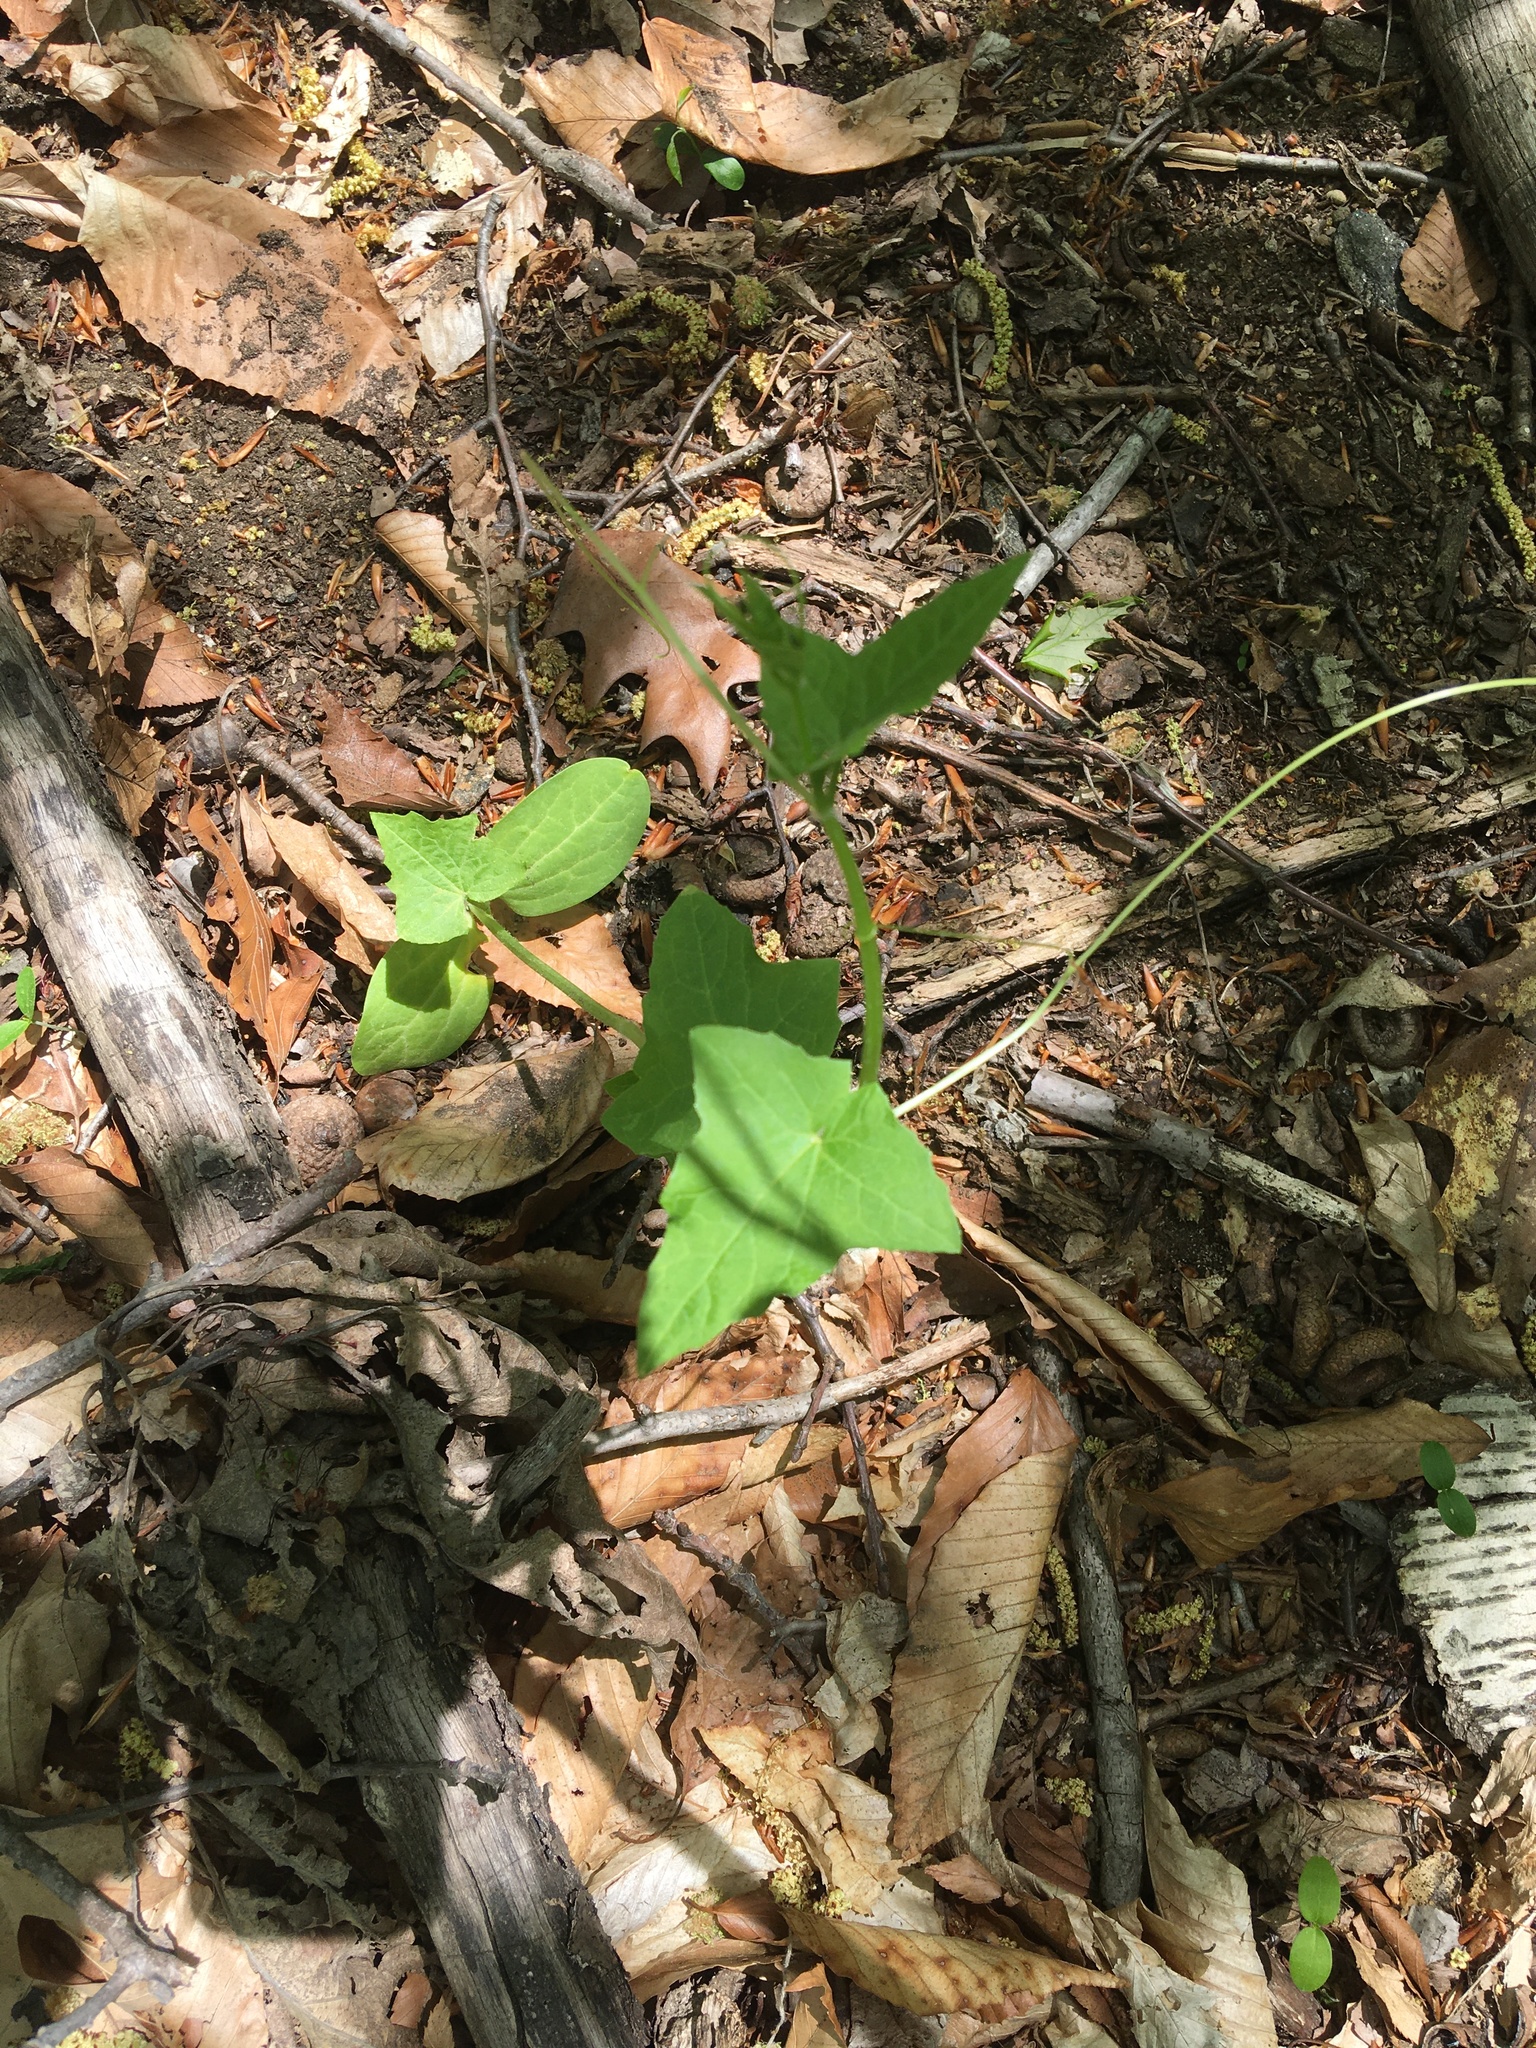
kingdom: Plantae
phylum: Tracheophyta
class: Magnoliopsida
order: Cucurbitales
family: Cucurbitaceae
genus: Echinocystis
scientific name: Echinocystis lobata
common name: Wild cucumber
